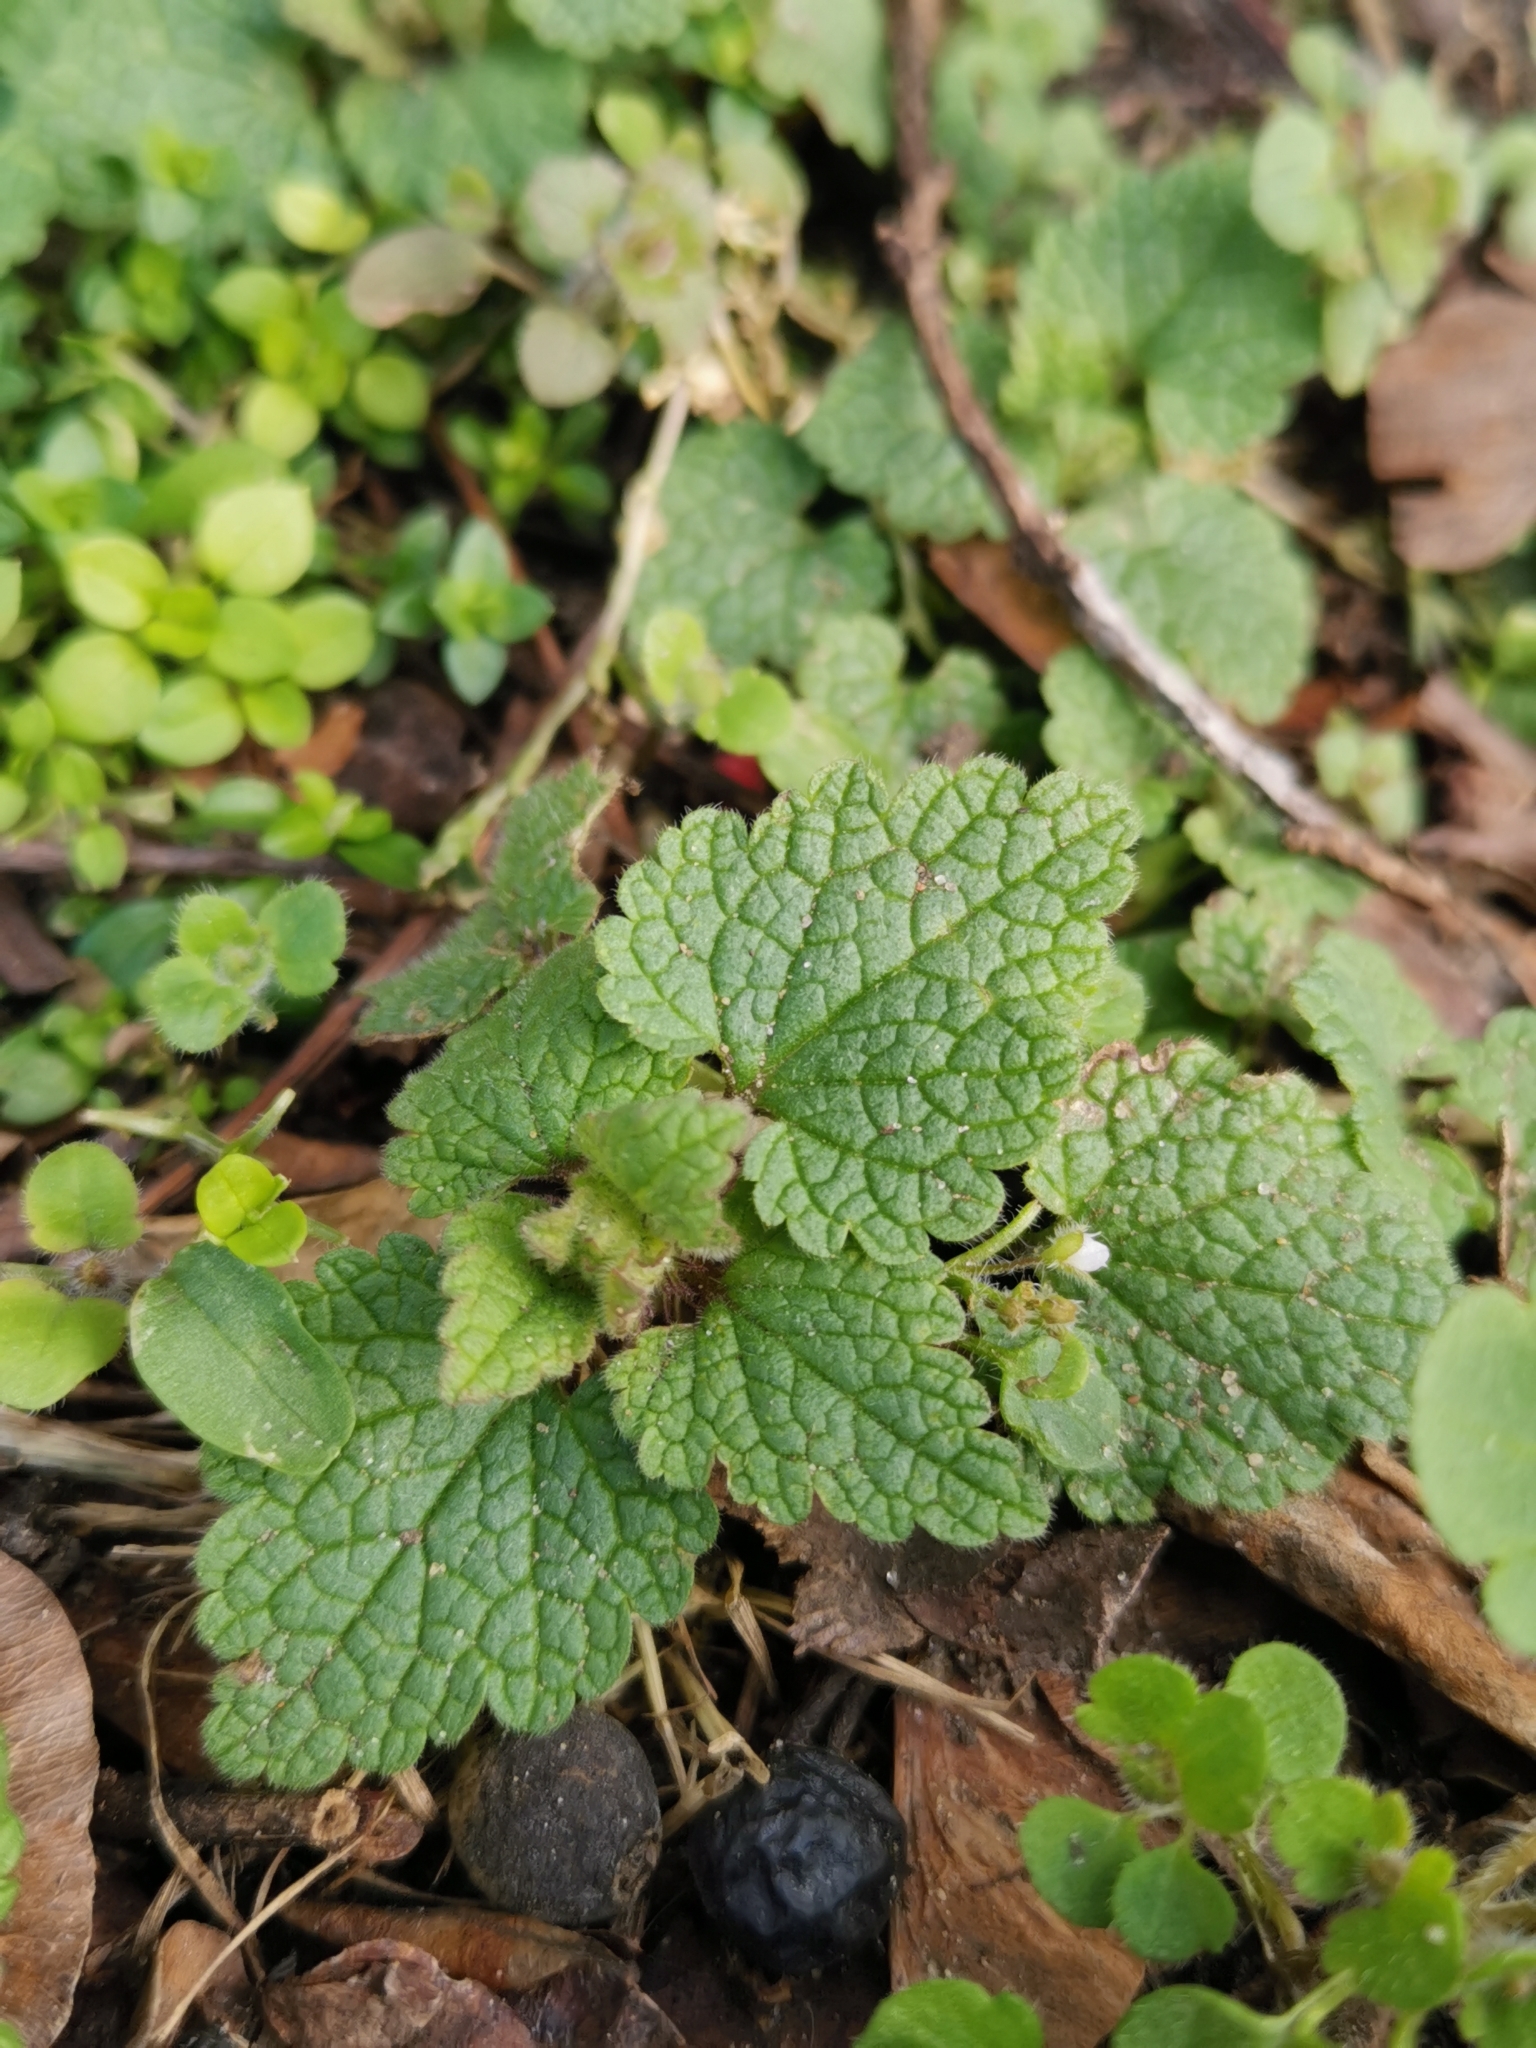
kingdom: Plantae
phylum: Tracheophyta
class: Magnoliopsida
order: Lamiales
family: Lamiaceae
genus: Lamium
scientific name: Lamium purpureum
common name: Red dead-nettle
